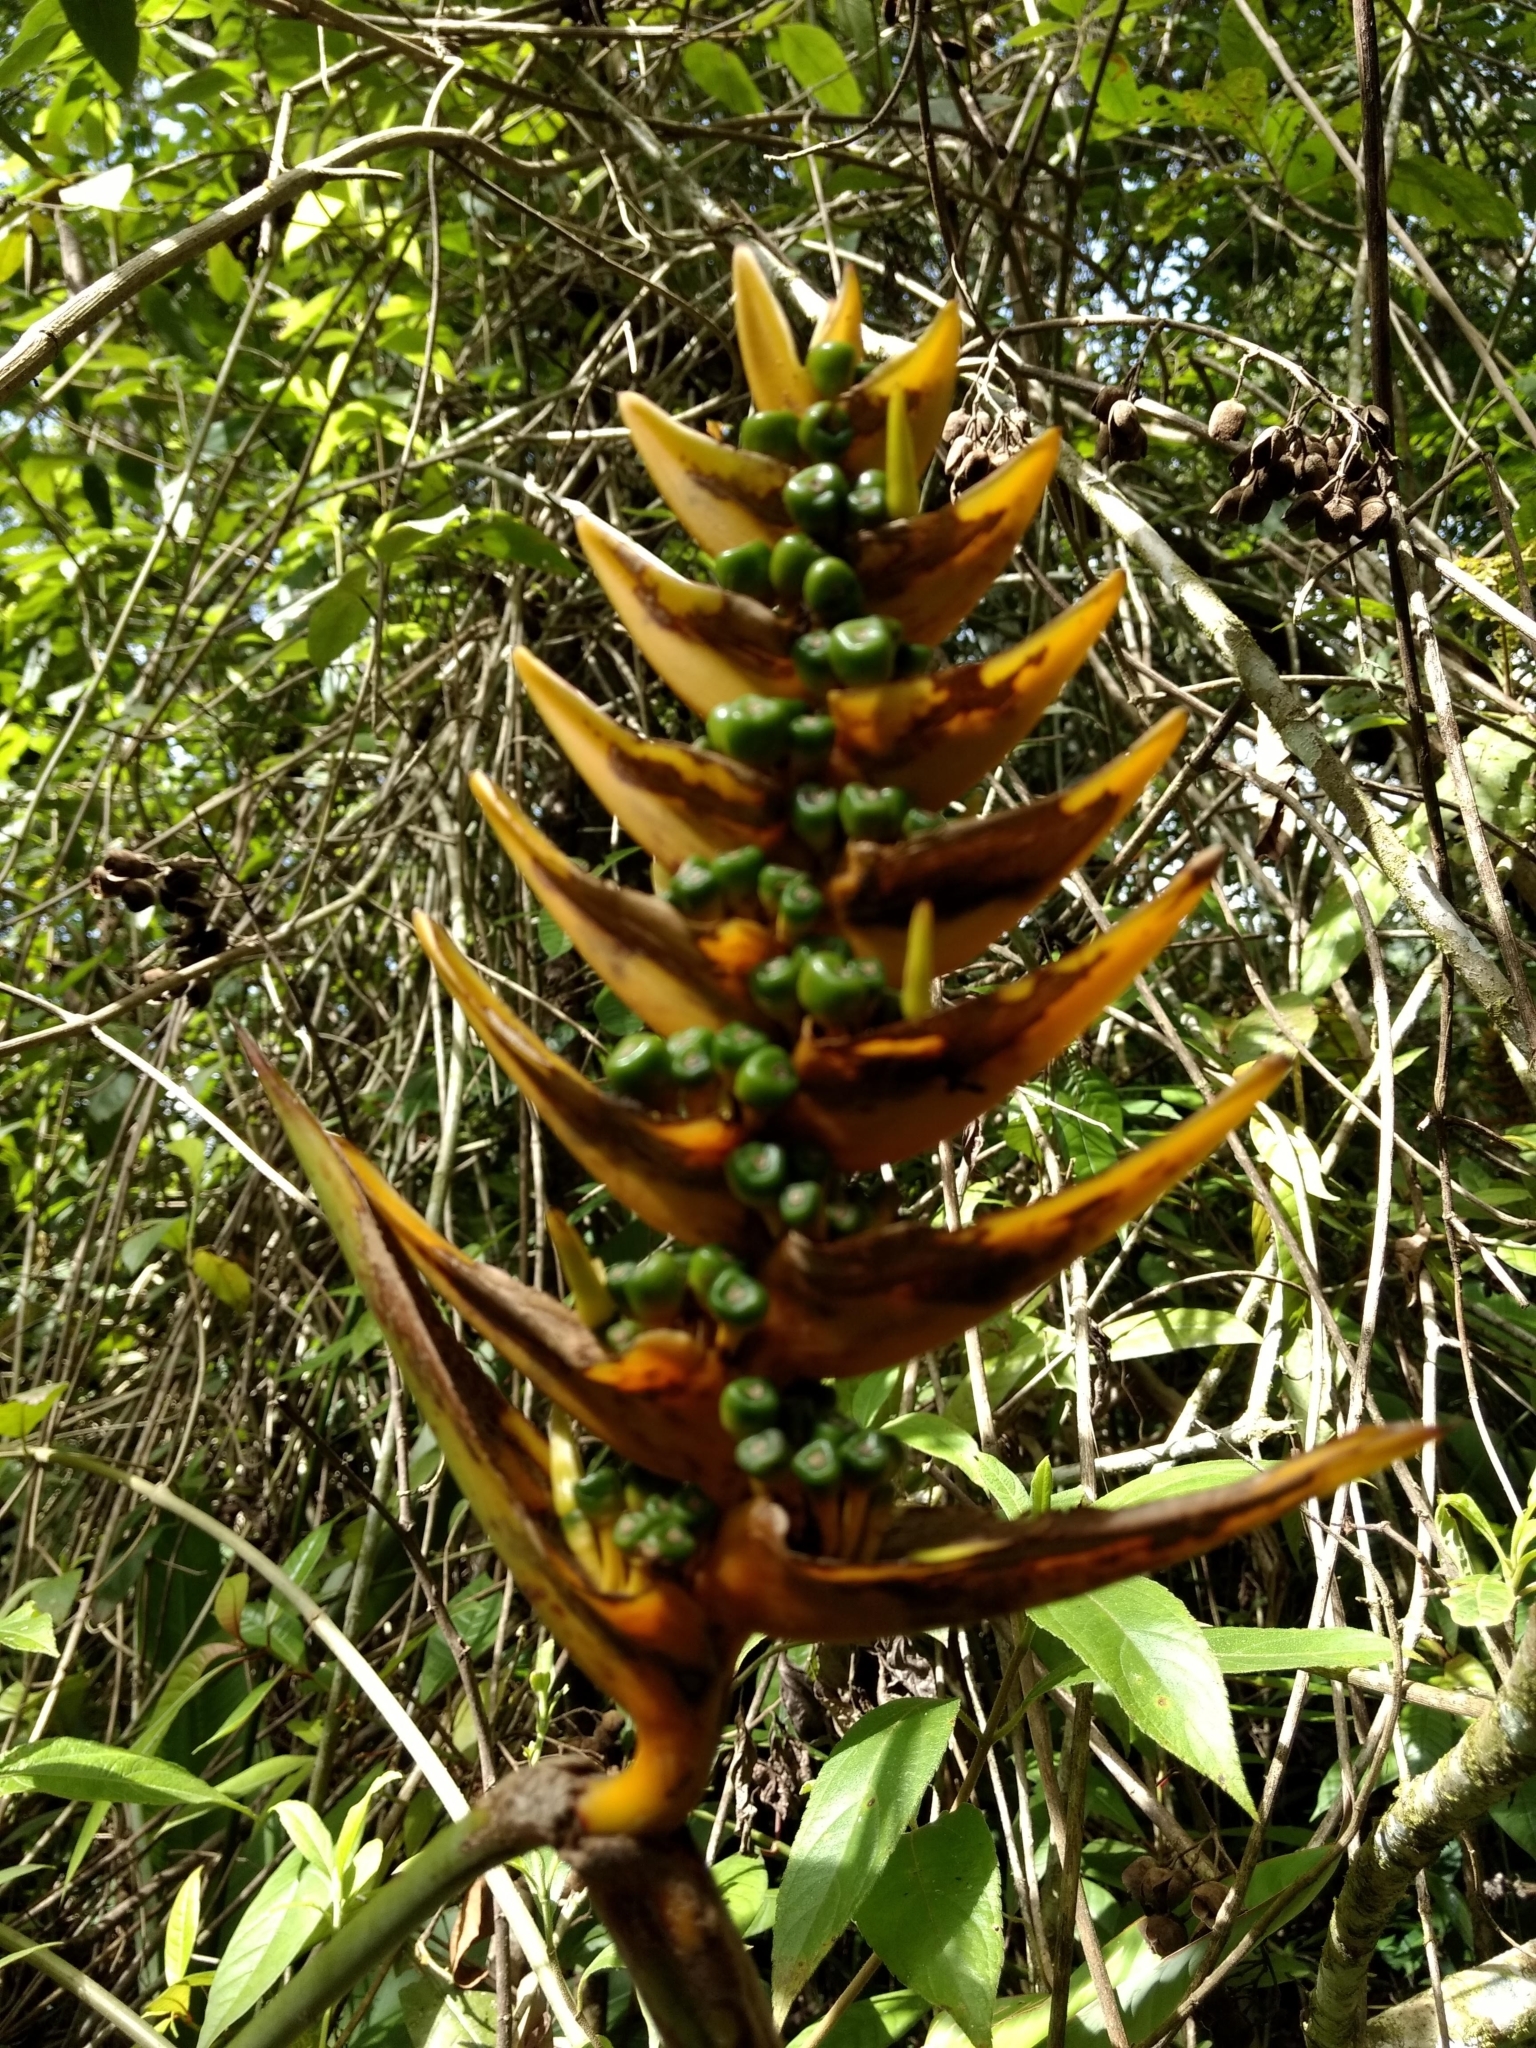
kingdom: Plantae
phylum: Tracheophyta
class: Liliopsida
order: Zingiberales
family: Heliconiaceae
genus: Heliconia
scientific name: Heliconia librata
